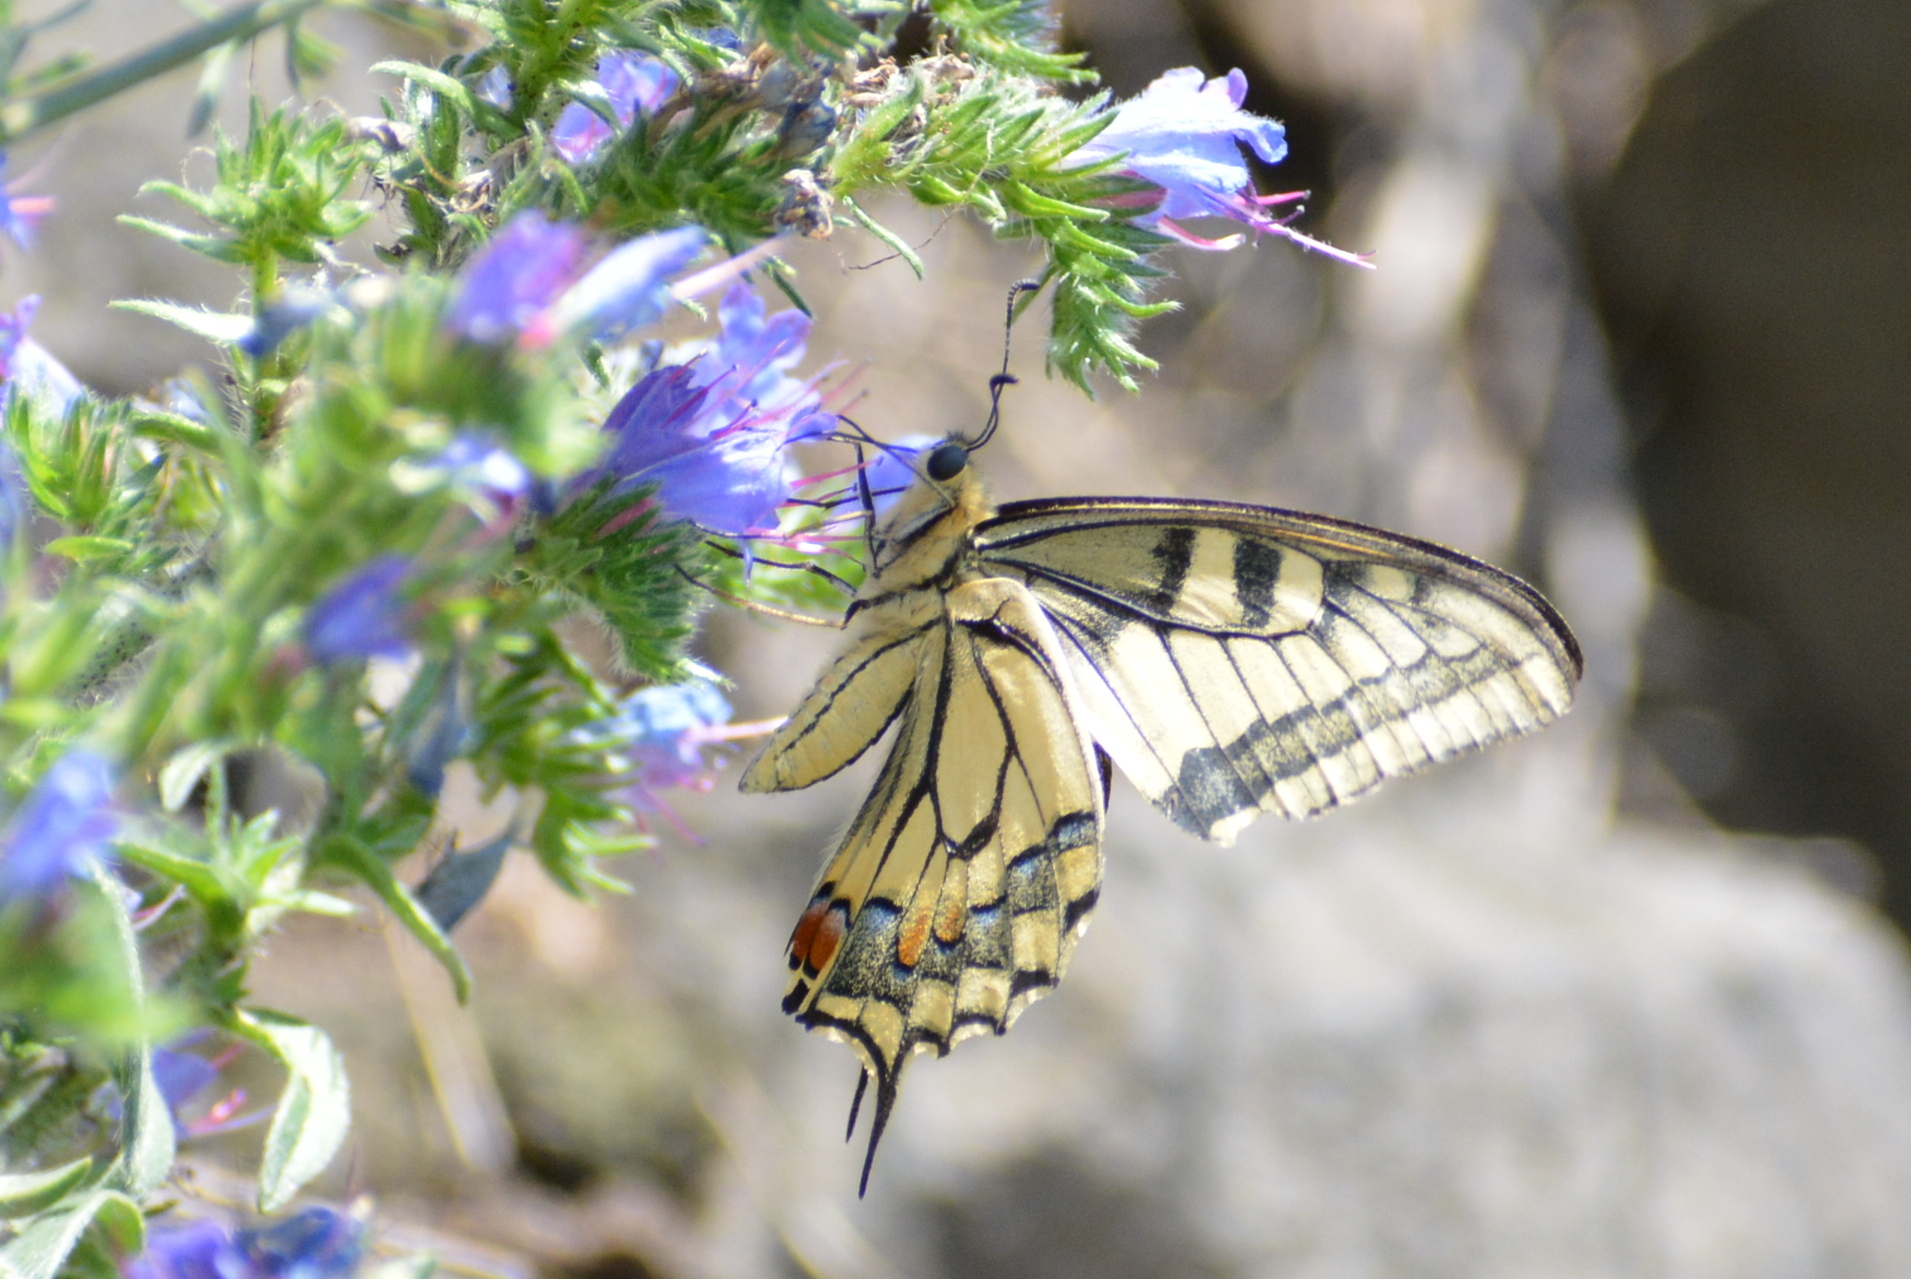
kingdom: Animalia
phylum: Arthropoda
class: Insecta
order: Lepidoptera
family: Papilionidae
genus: Papilio
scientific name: Papilio machaon
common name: Swallowtail
